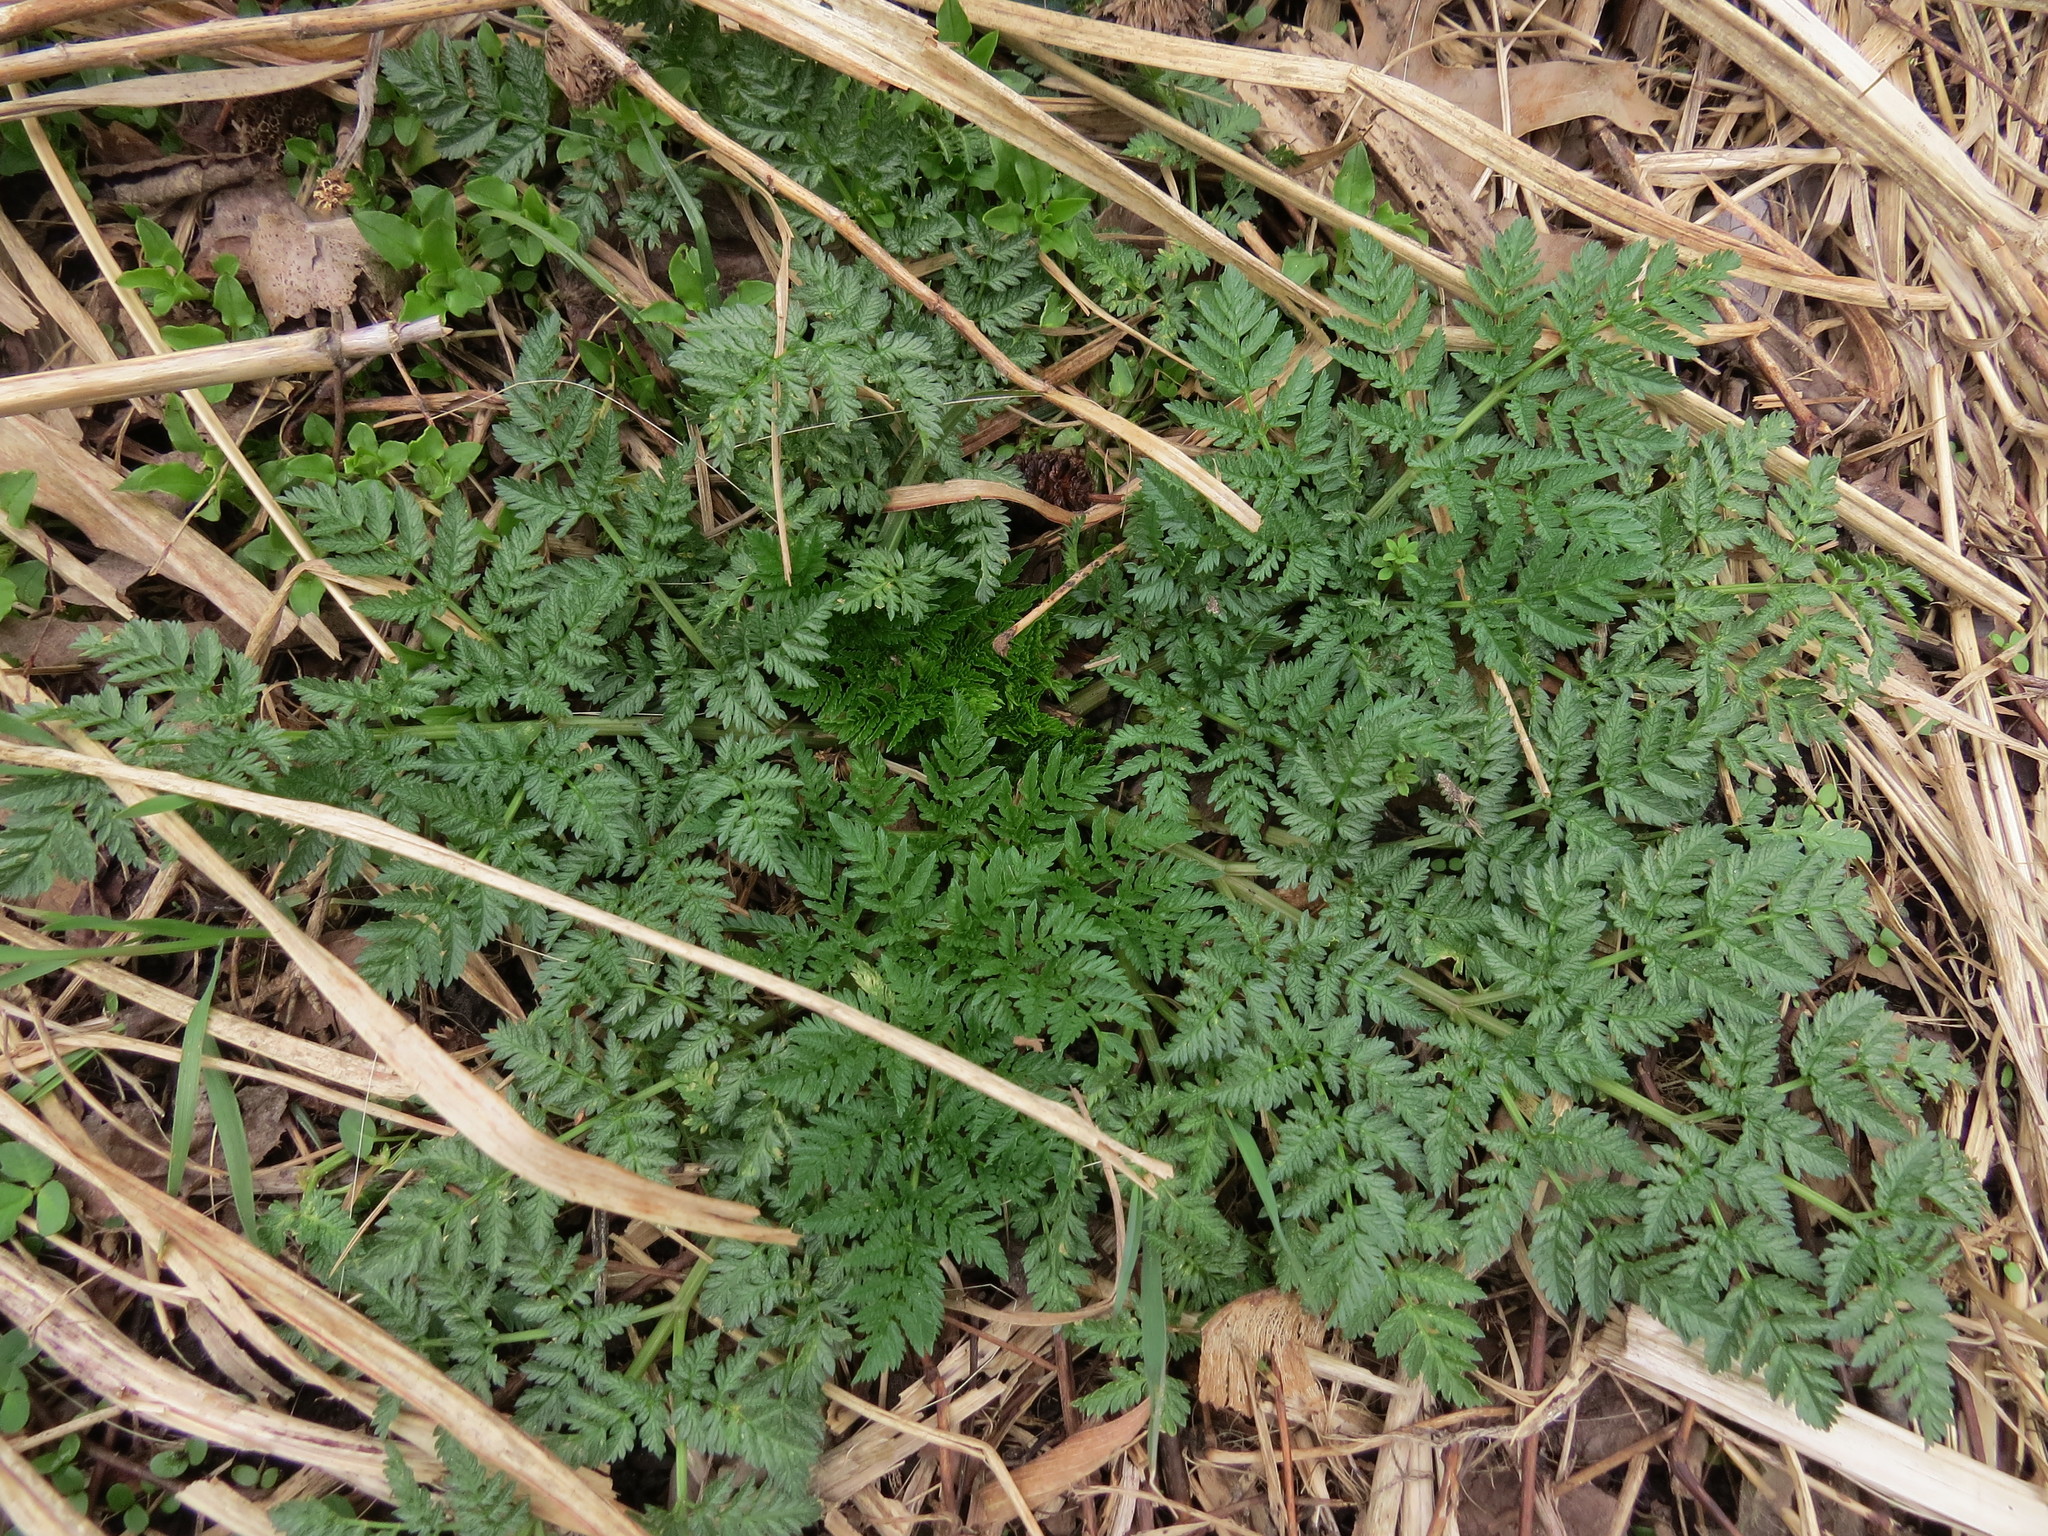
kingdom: Plantae
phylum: Tracheophyta
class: Magnoliopsida
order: Apiales
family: Apiaceae
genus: Conium
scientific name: Conium maculatum
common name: Hemlock
